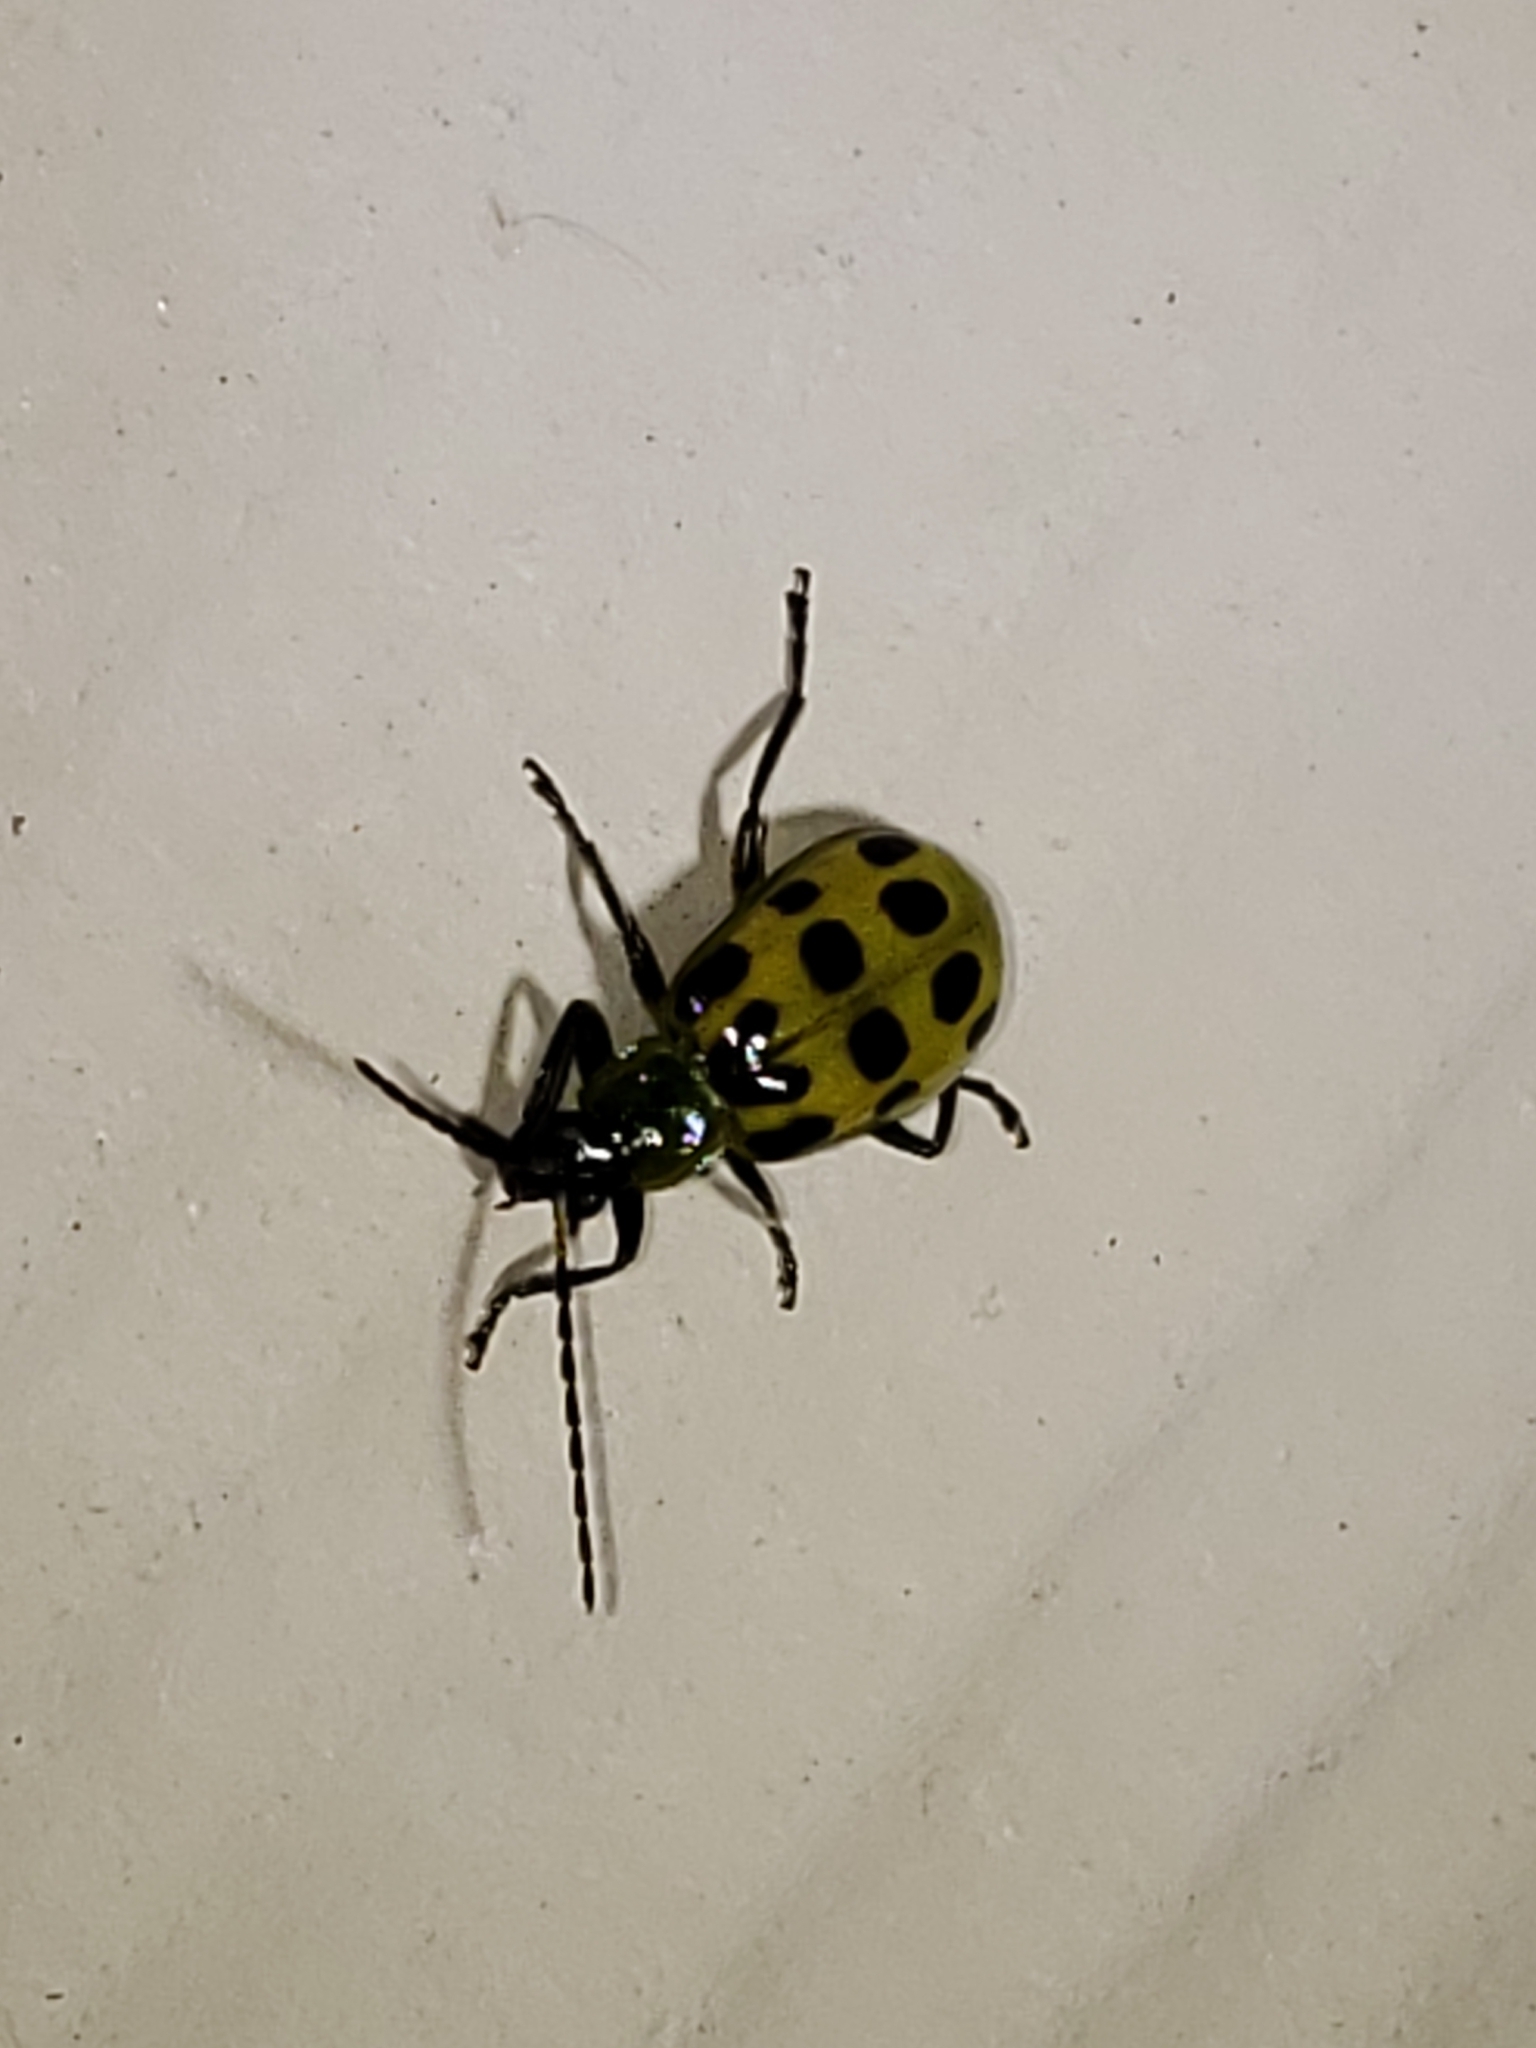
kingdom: Animalia
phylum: Arthropoda
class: Insecta
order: Coleoptera
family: Chrysomelidae
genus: Diabrotica
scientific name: Diabrotica undecimpunctata
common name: Spotted cucumber beetle
